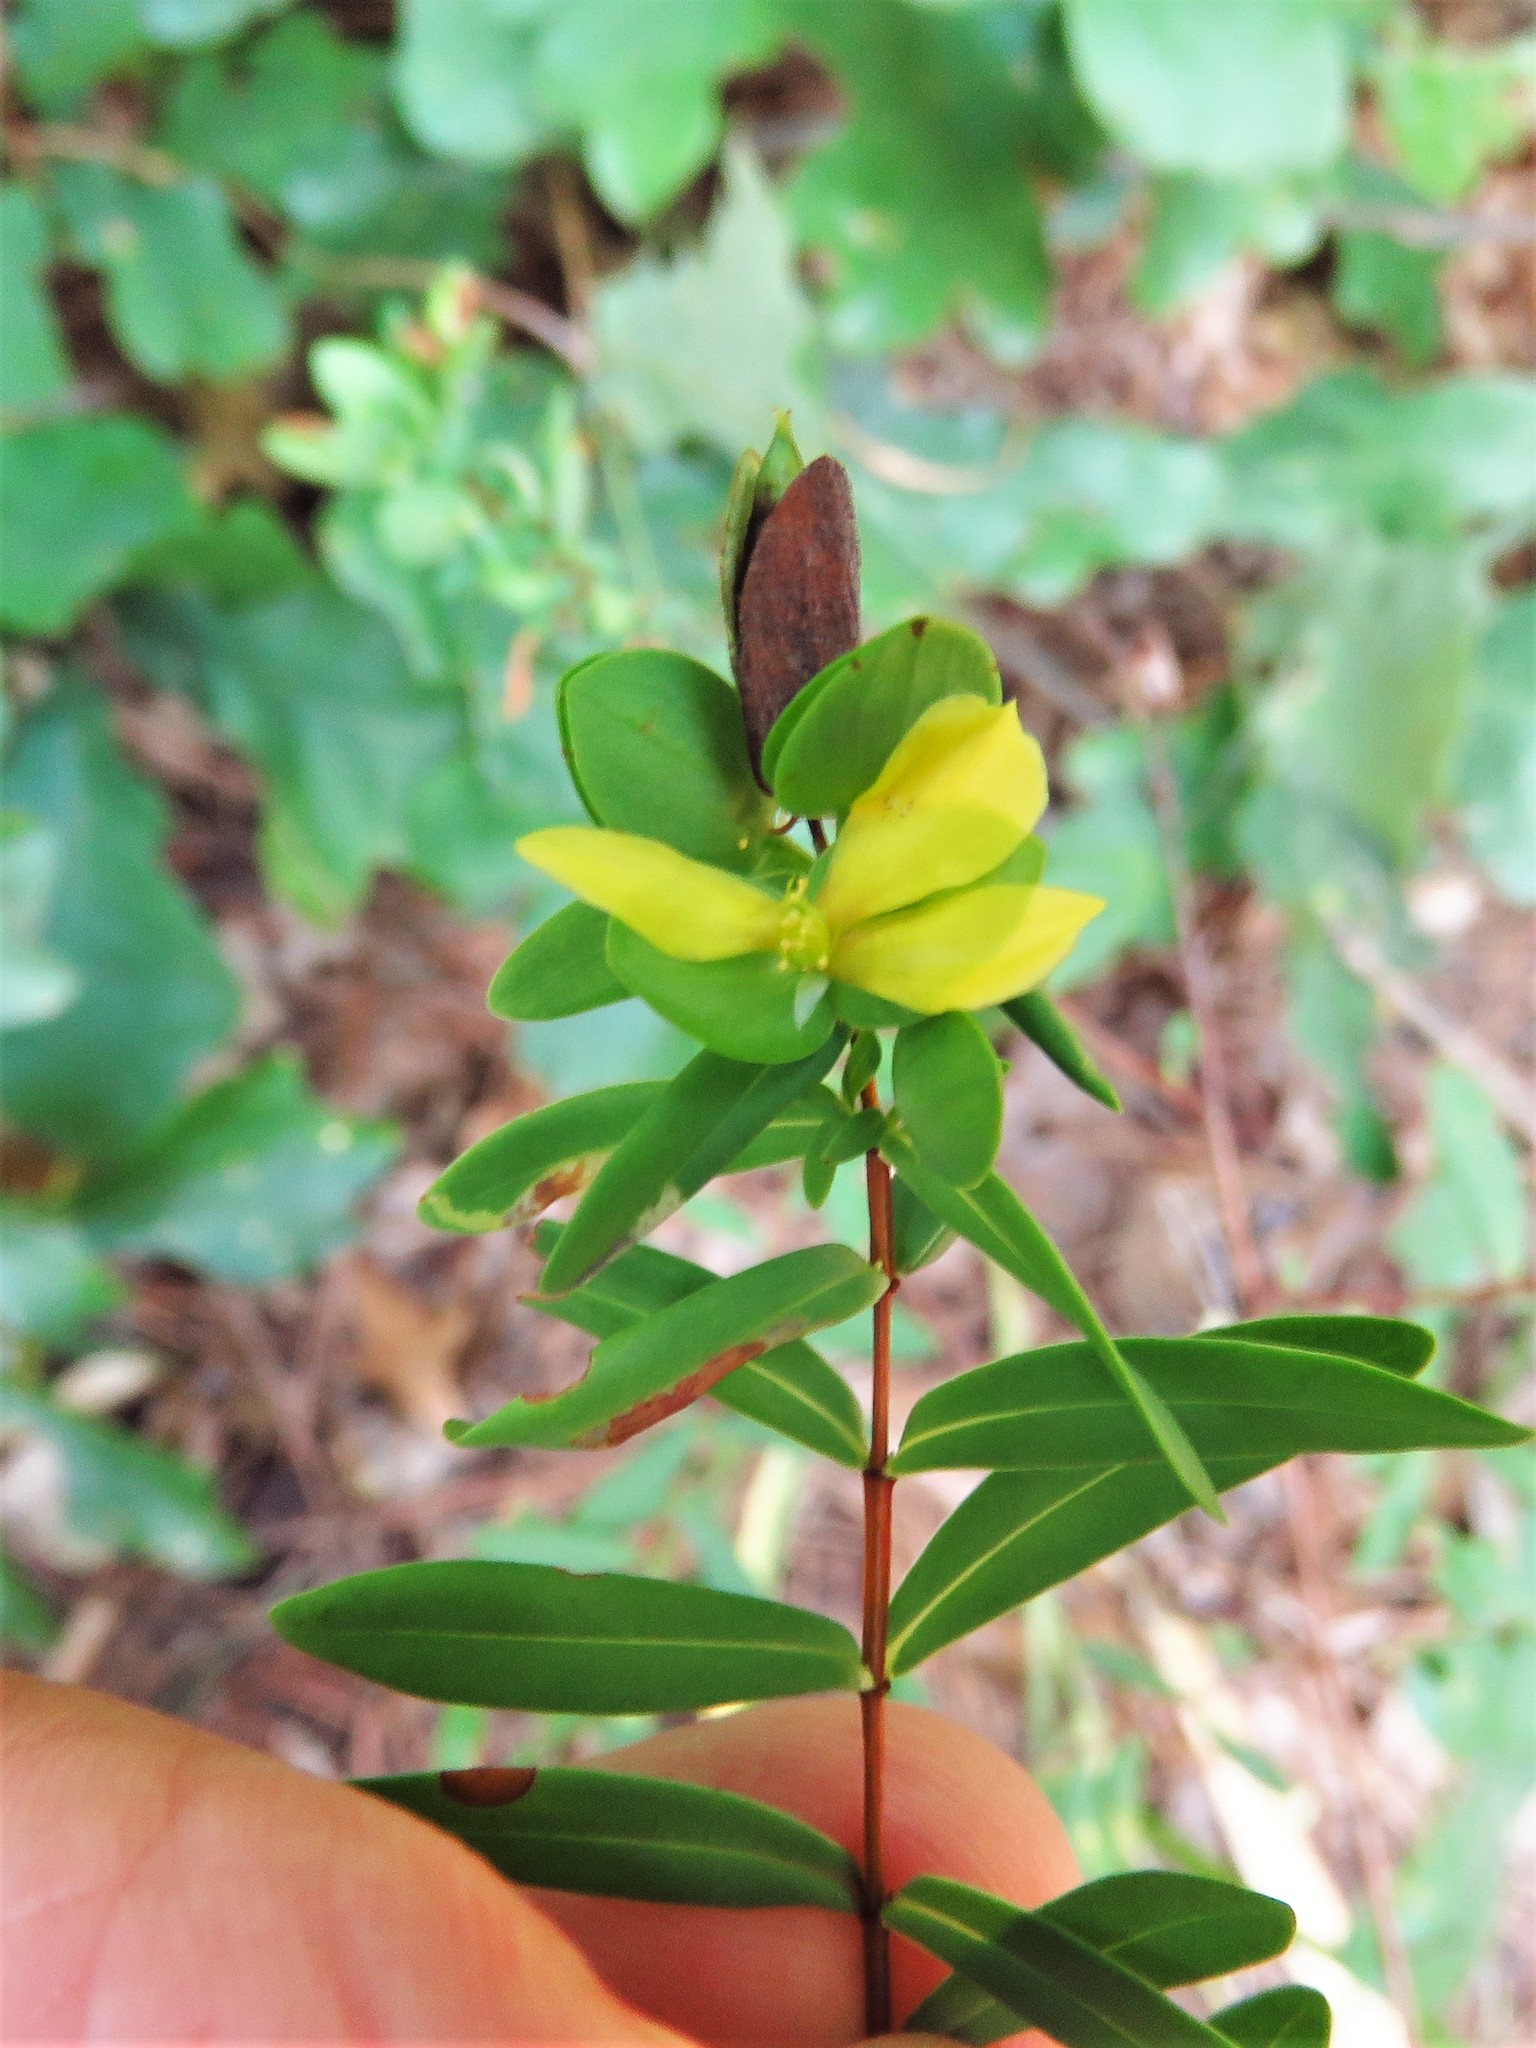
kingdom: Plantae
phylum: Tracheophyta
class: Magnoliopsida
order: Malpighiales
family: Hypericaceae
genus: Hypericum
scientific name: Hypericum hypericoides
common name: St. andrew's cross
